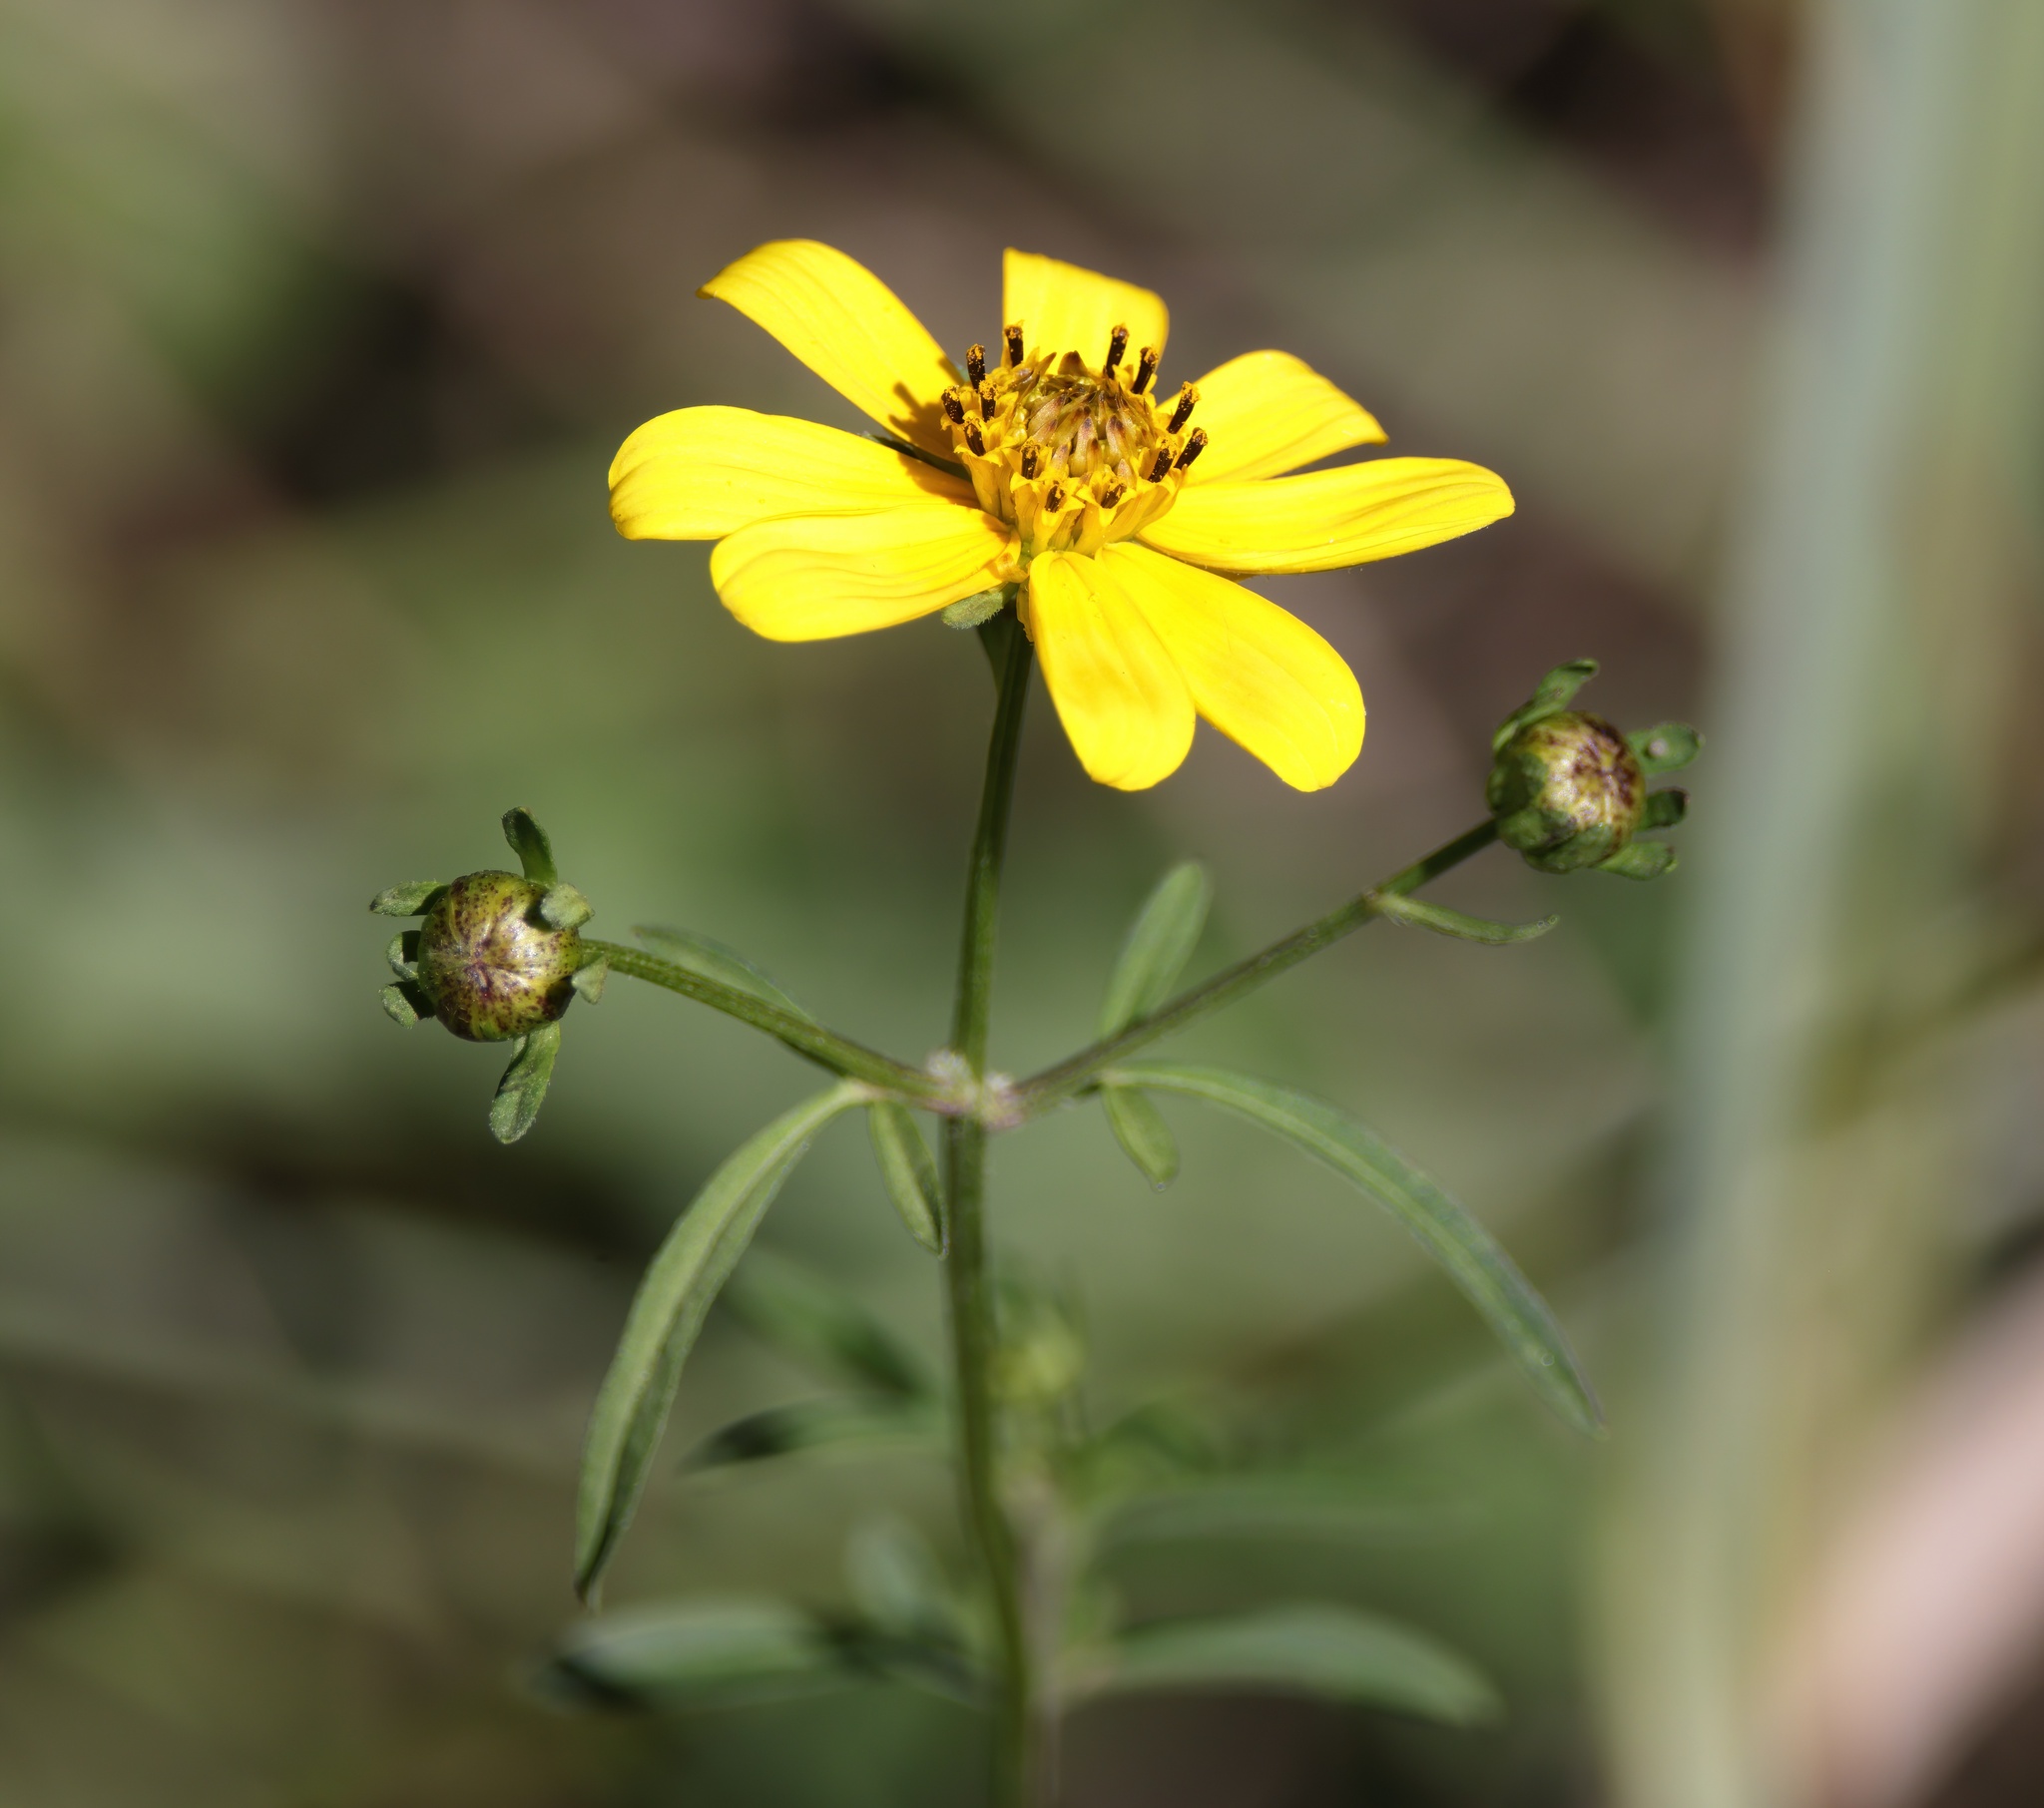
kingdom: Plantae
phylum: Tracheophyta
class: Magnoliopsida
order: Asterales
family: Asteraceae
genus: Bidens
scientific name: Bidens mitis
